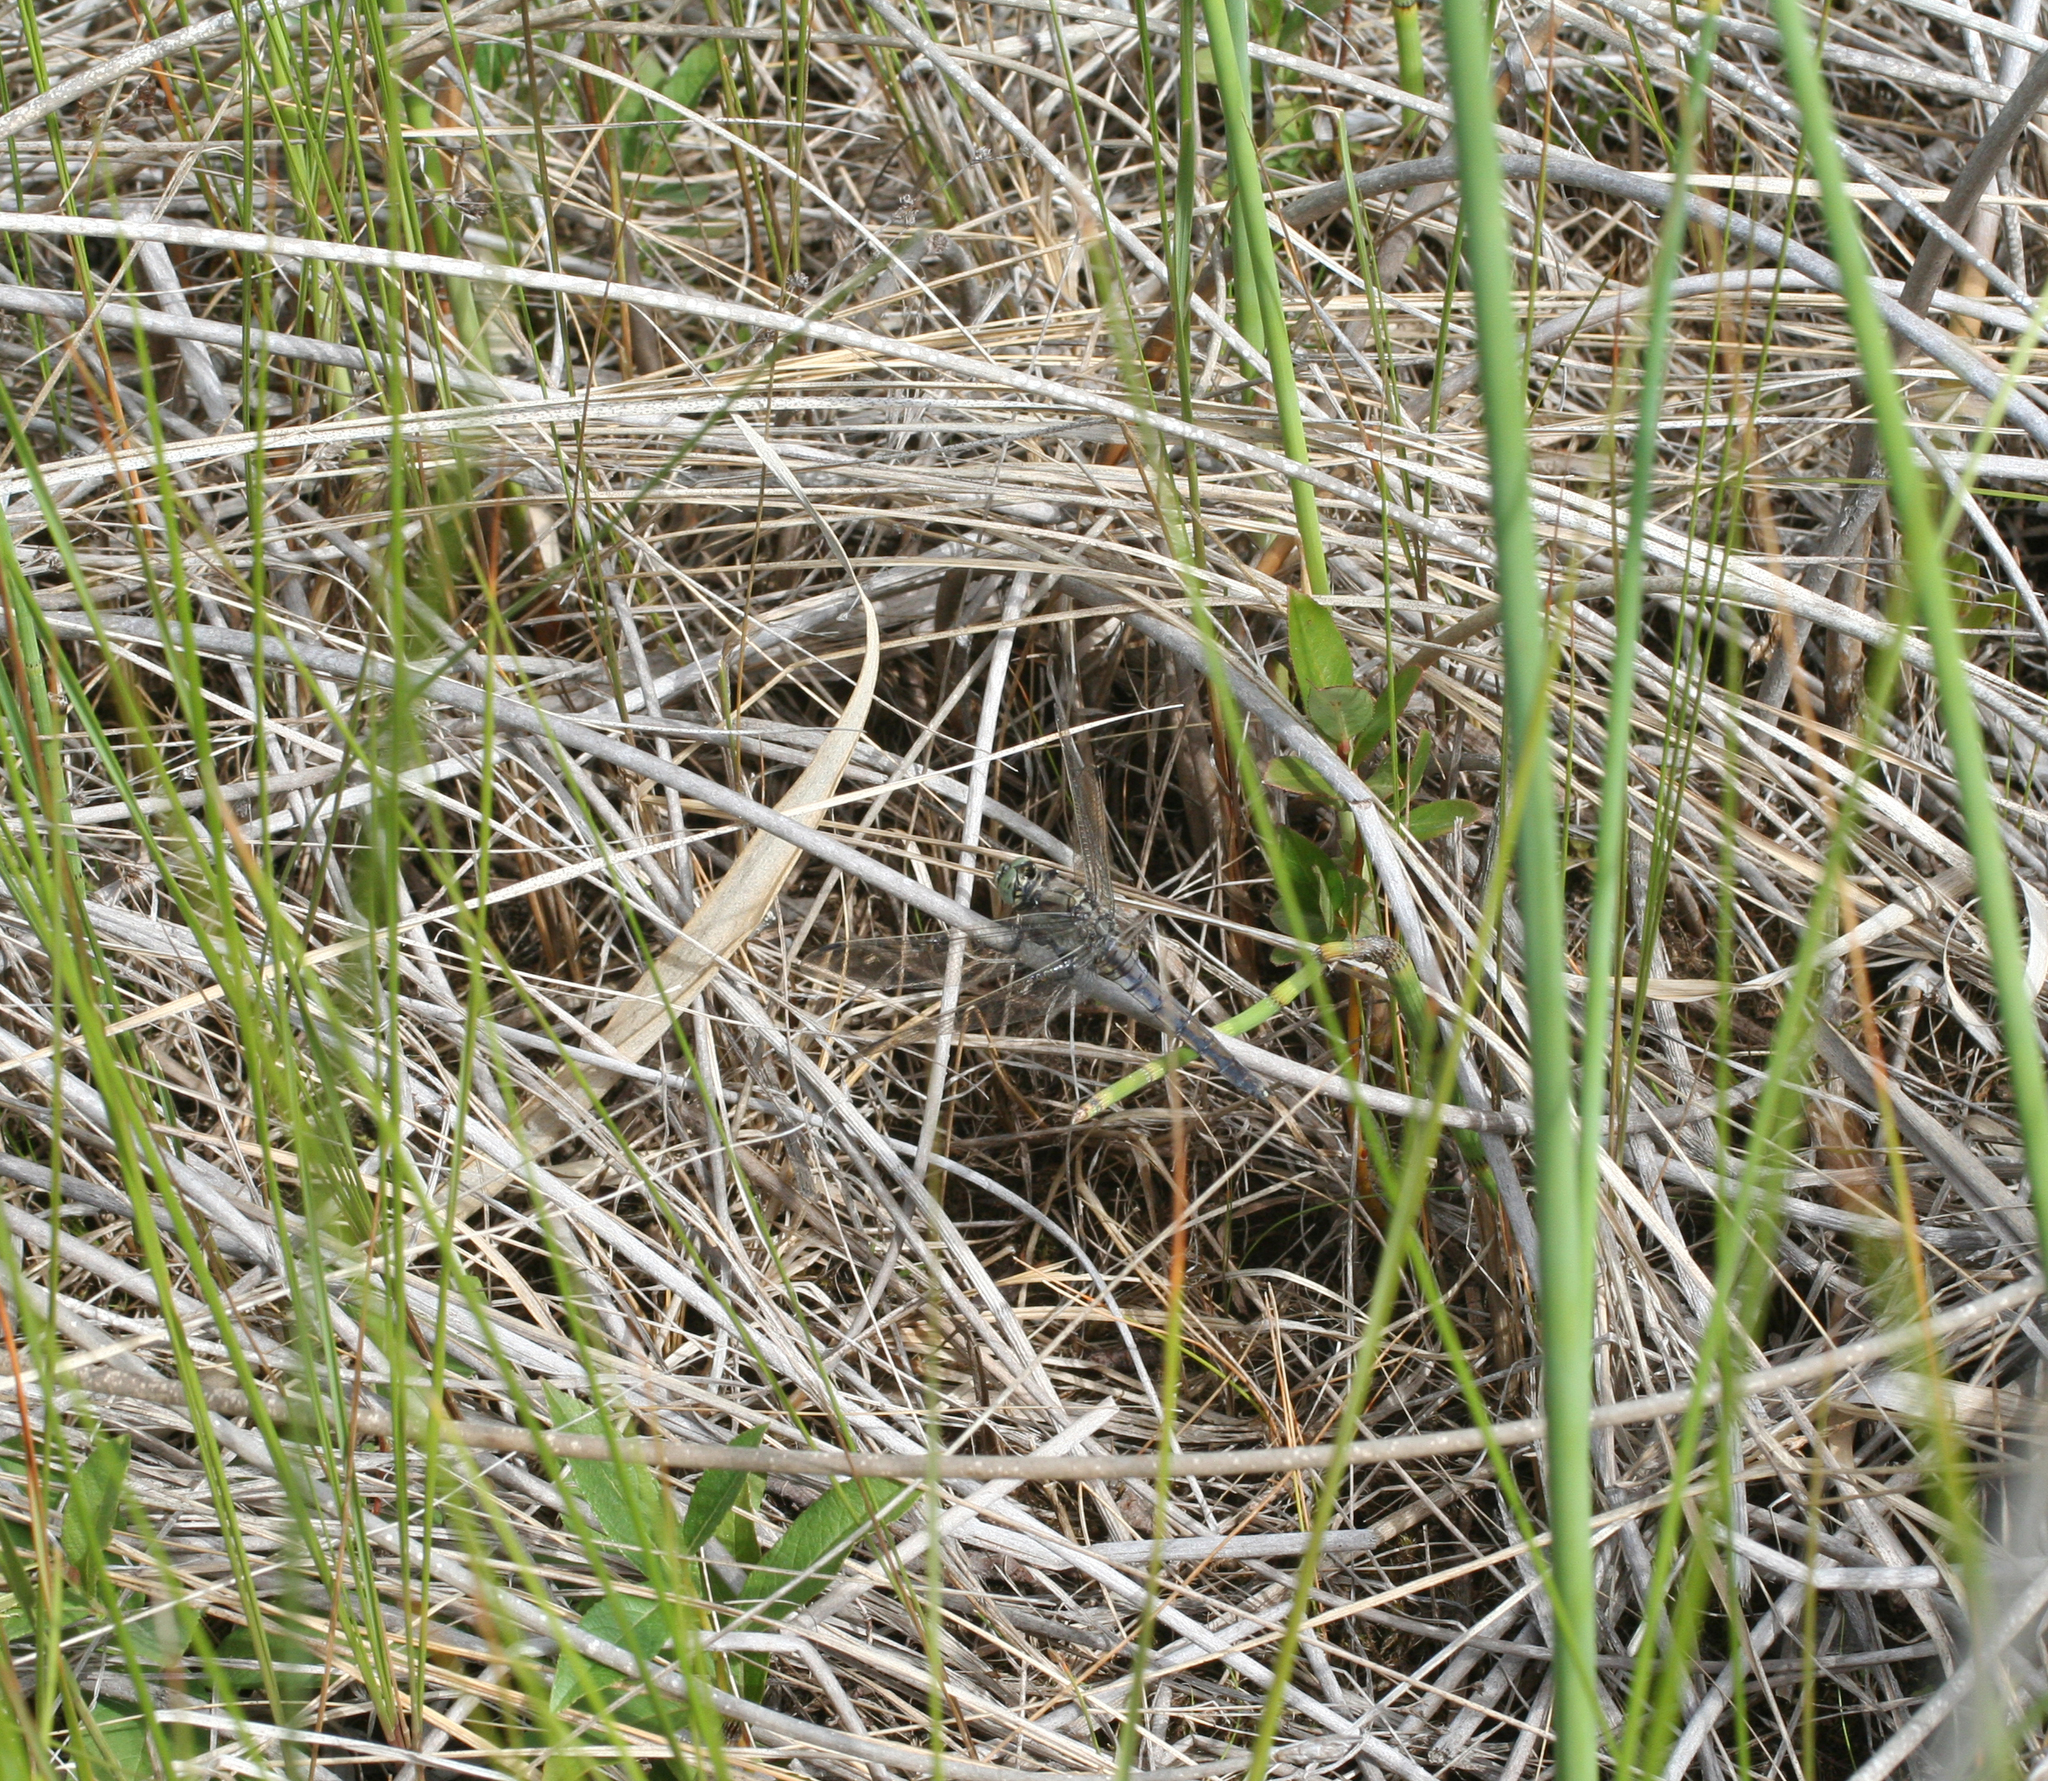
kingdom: Animalia
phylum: Arthropoda
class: Insecta
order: Odonata
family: Libellulidae
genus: Orthetrum
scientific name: Orthetrum cancellatum
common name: Black-tailed skimmer
